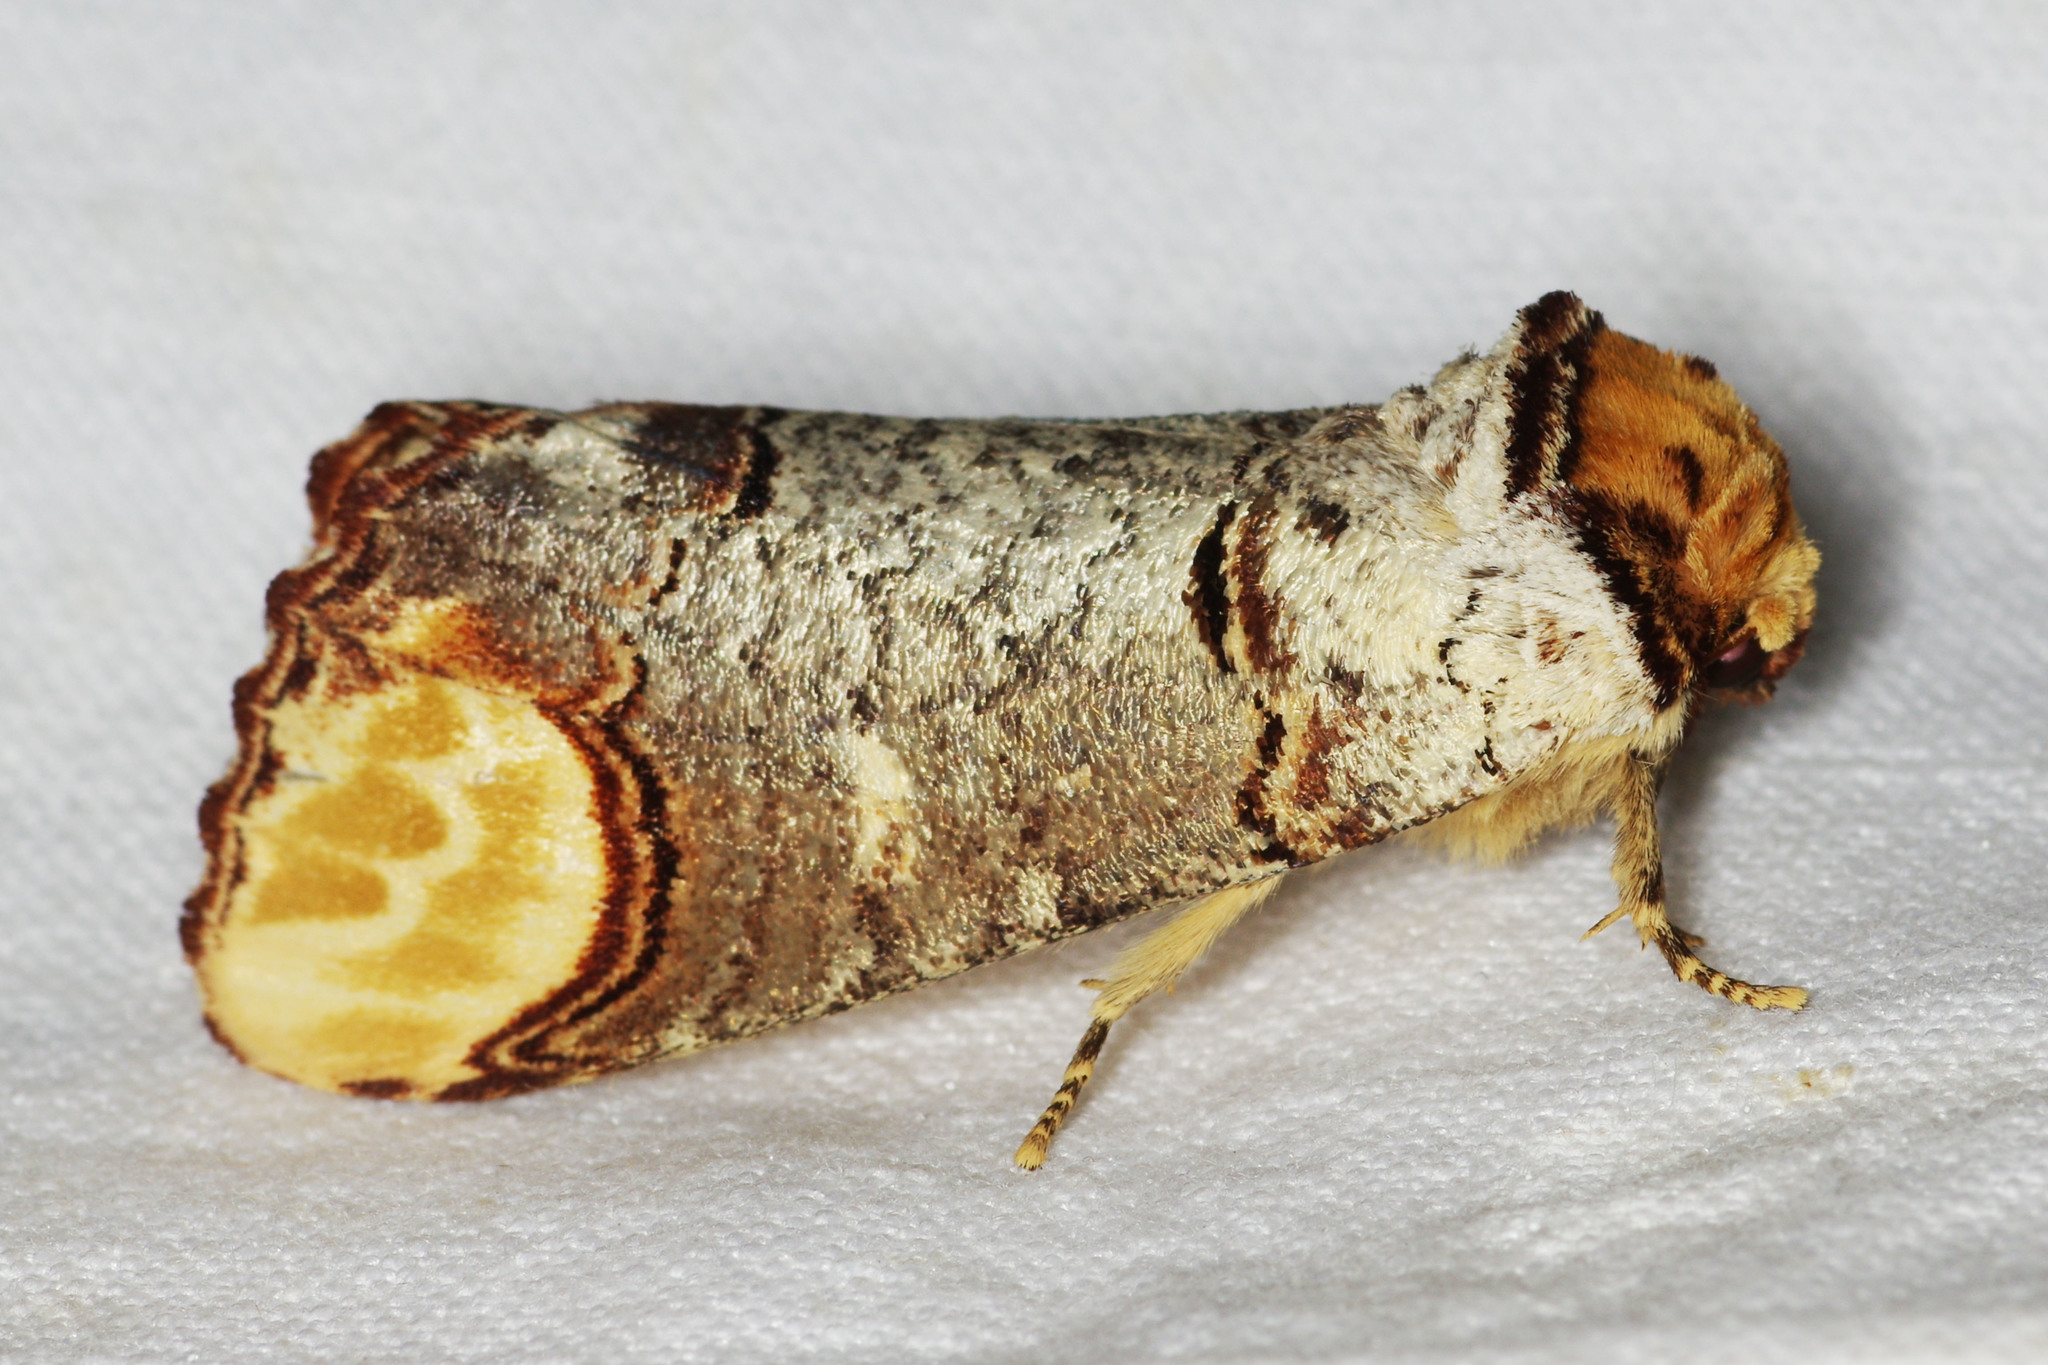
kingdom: Animalia
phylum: Arthropoda
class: Insecta
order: Lepidoptera
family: Notodontidae
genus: Phalera
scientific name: Phalera bucephala
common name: Buff-tip
